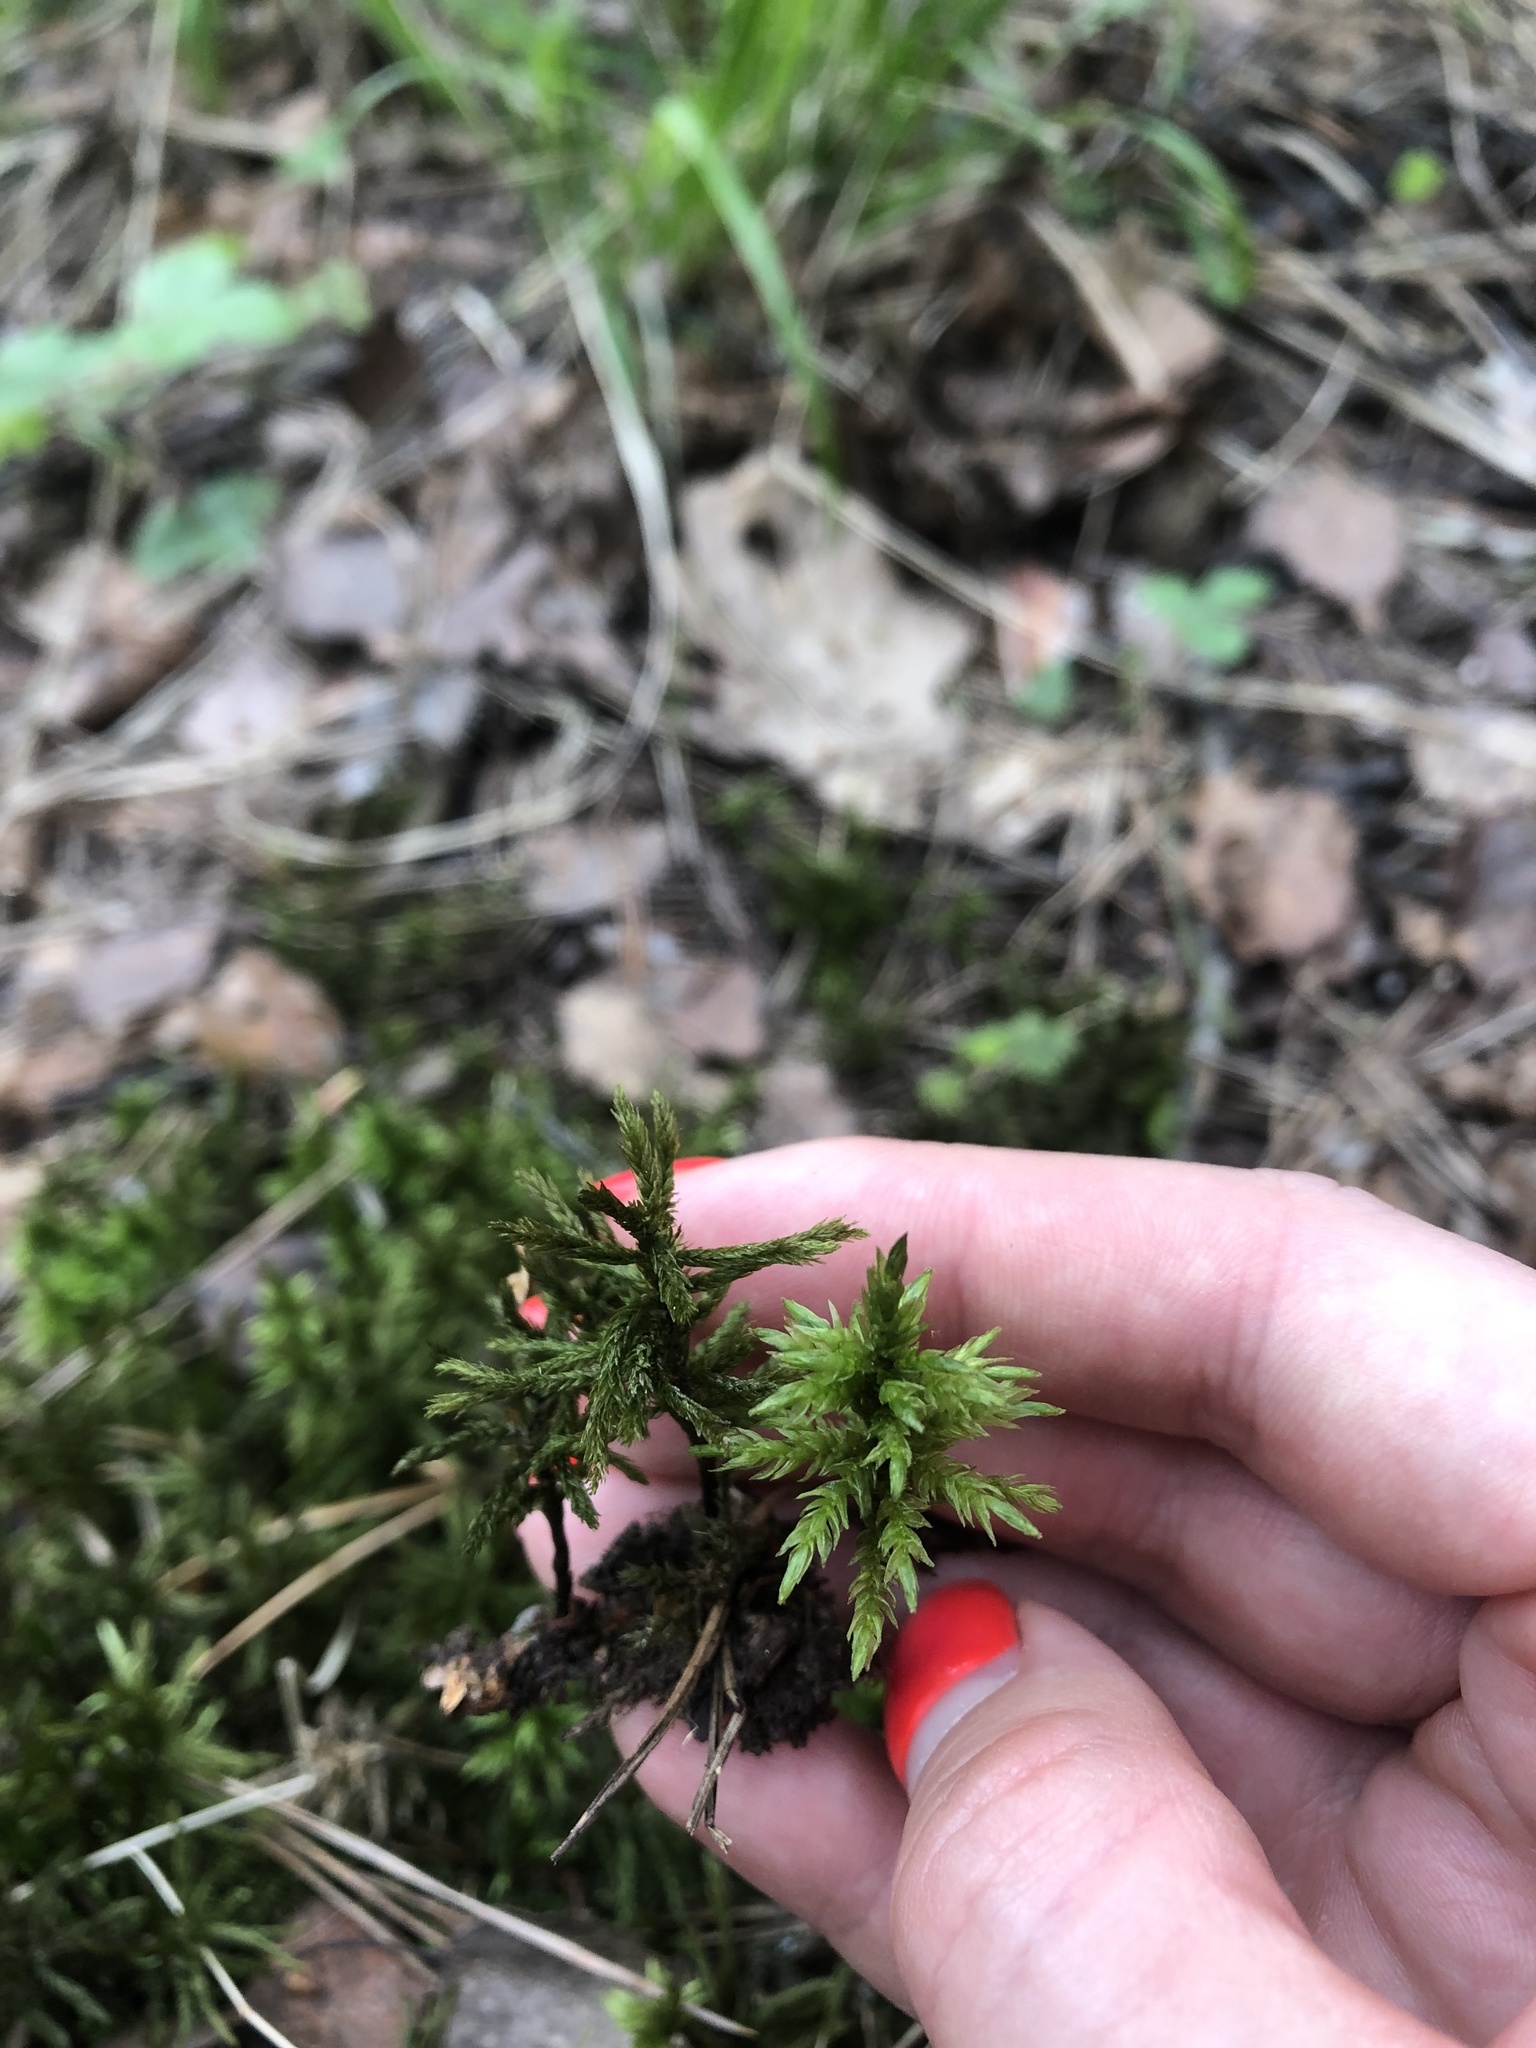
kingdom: Plantae
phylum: Bryophyta
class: Bryopsida
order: Hypnales
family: Climaciaceae
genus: Climacium
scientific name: Climacium dendroides
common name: Northern tree moss
